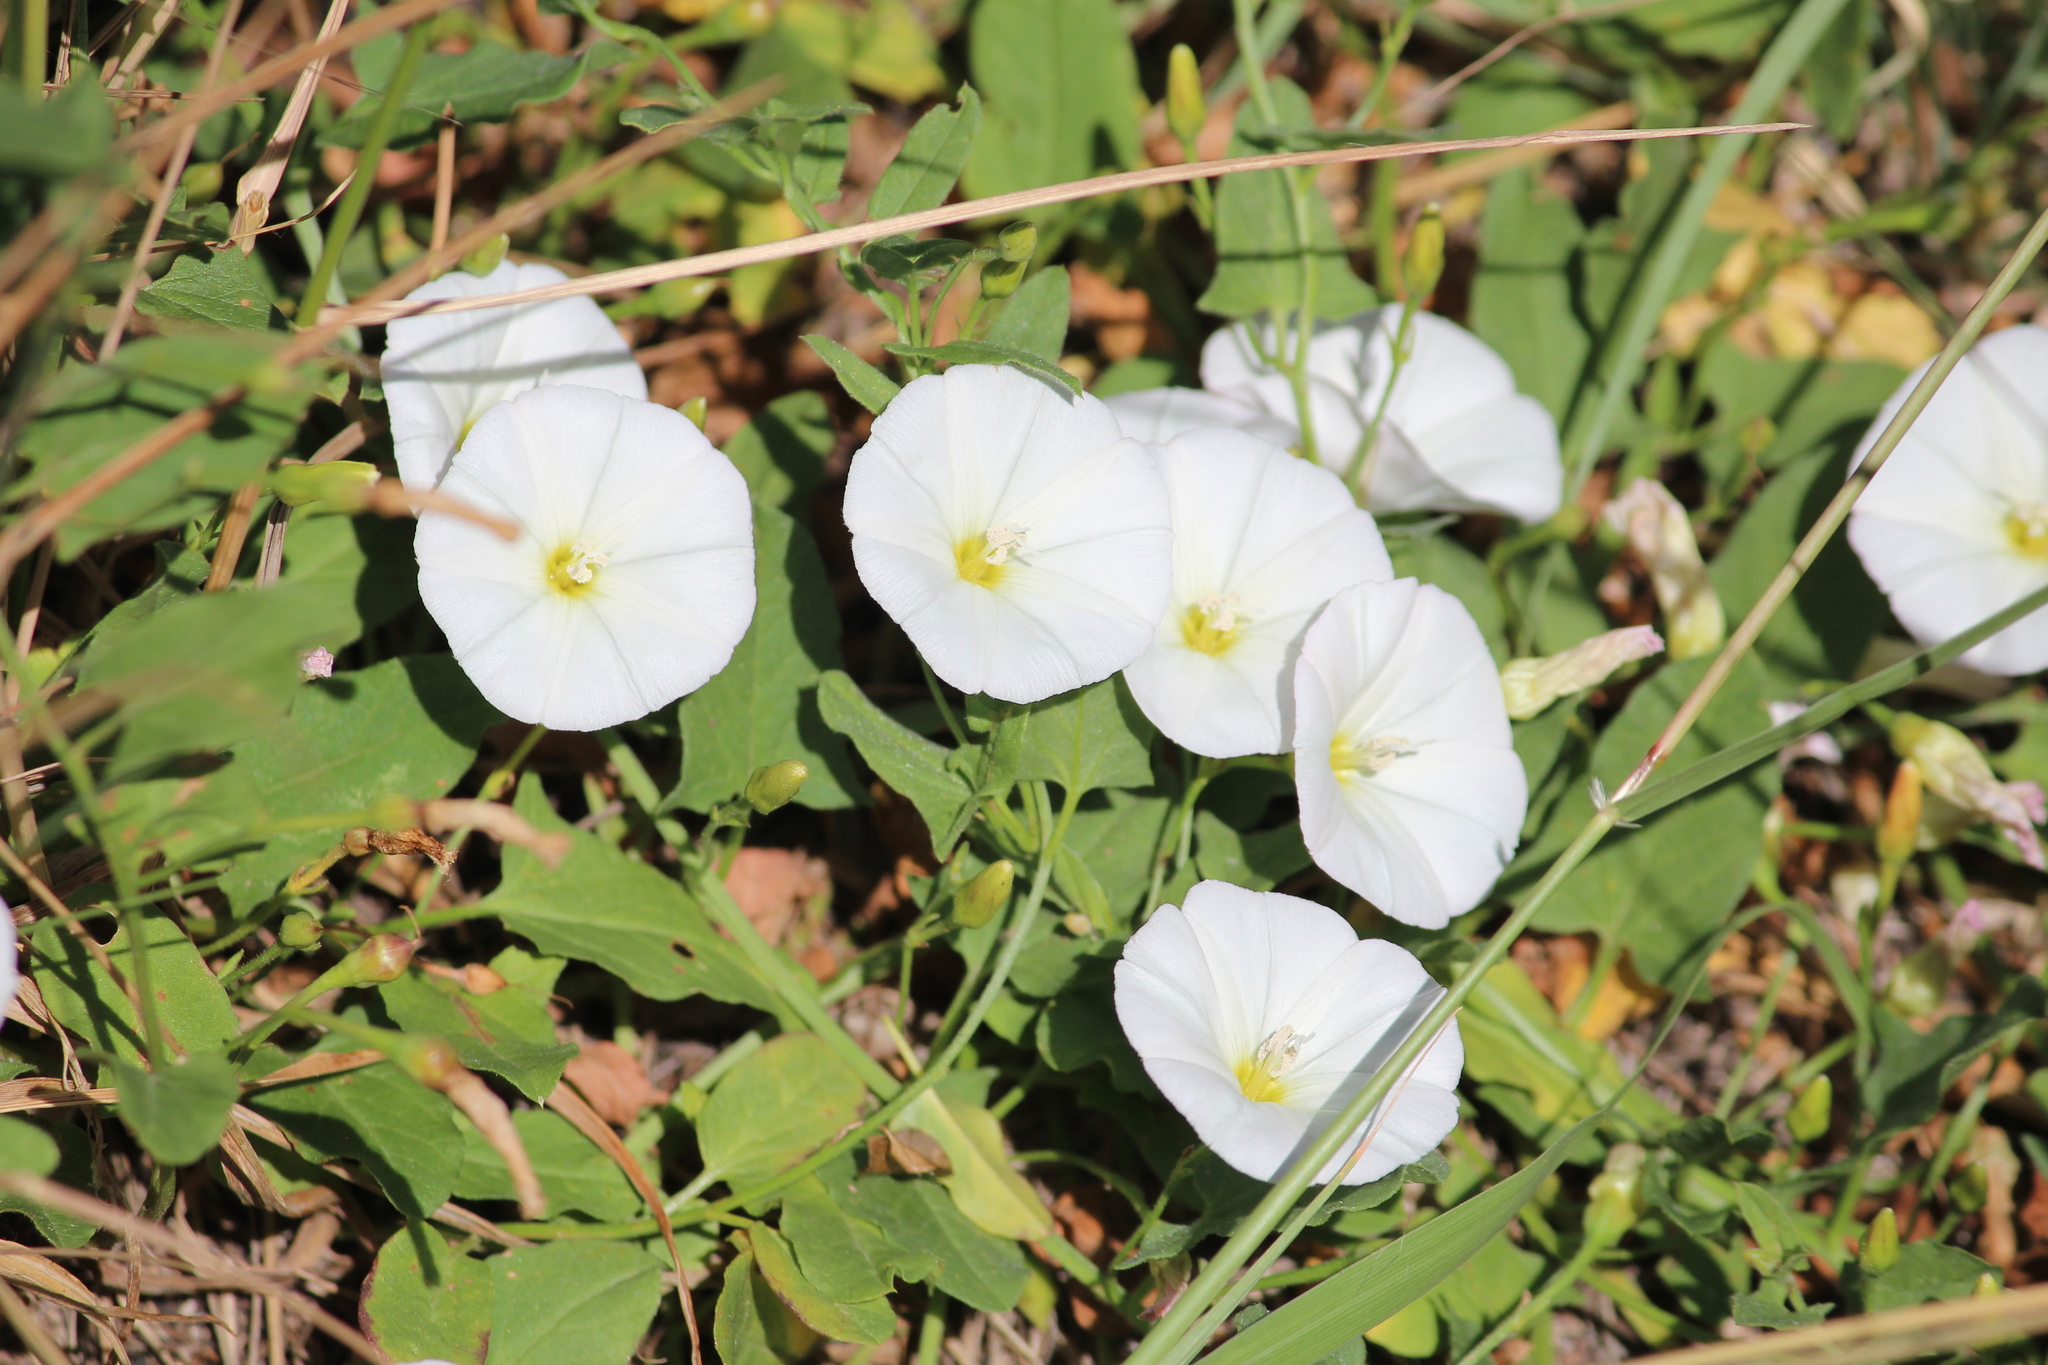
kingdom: Plantae
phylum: Tracheophyta
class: Magnoliopsida
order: Solanales
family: Convolvulaceae
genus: Convolvulus
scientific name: Convolvulus arvensis
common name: Field bindweed
